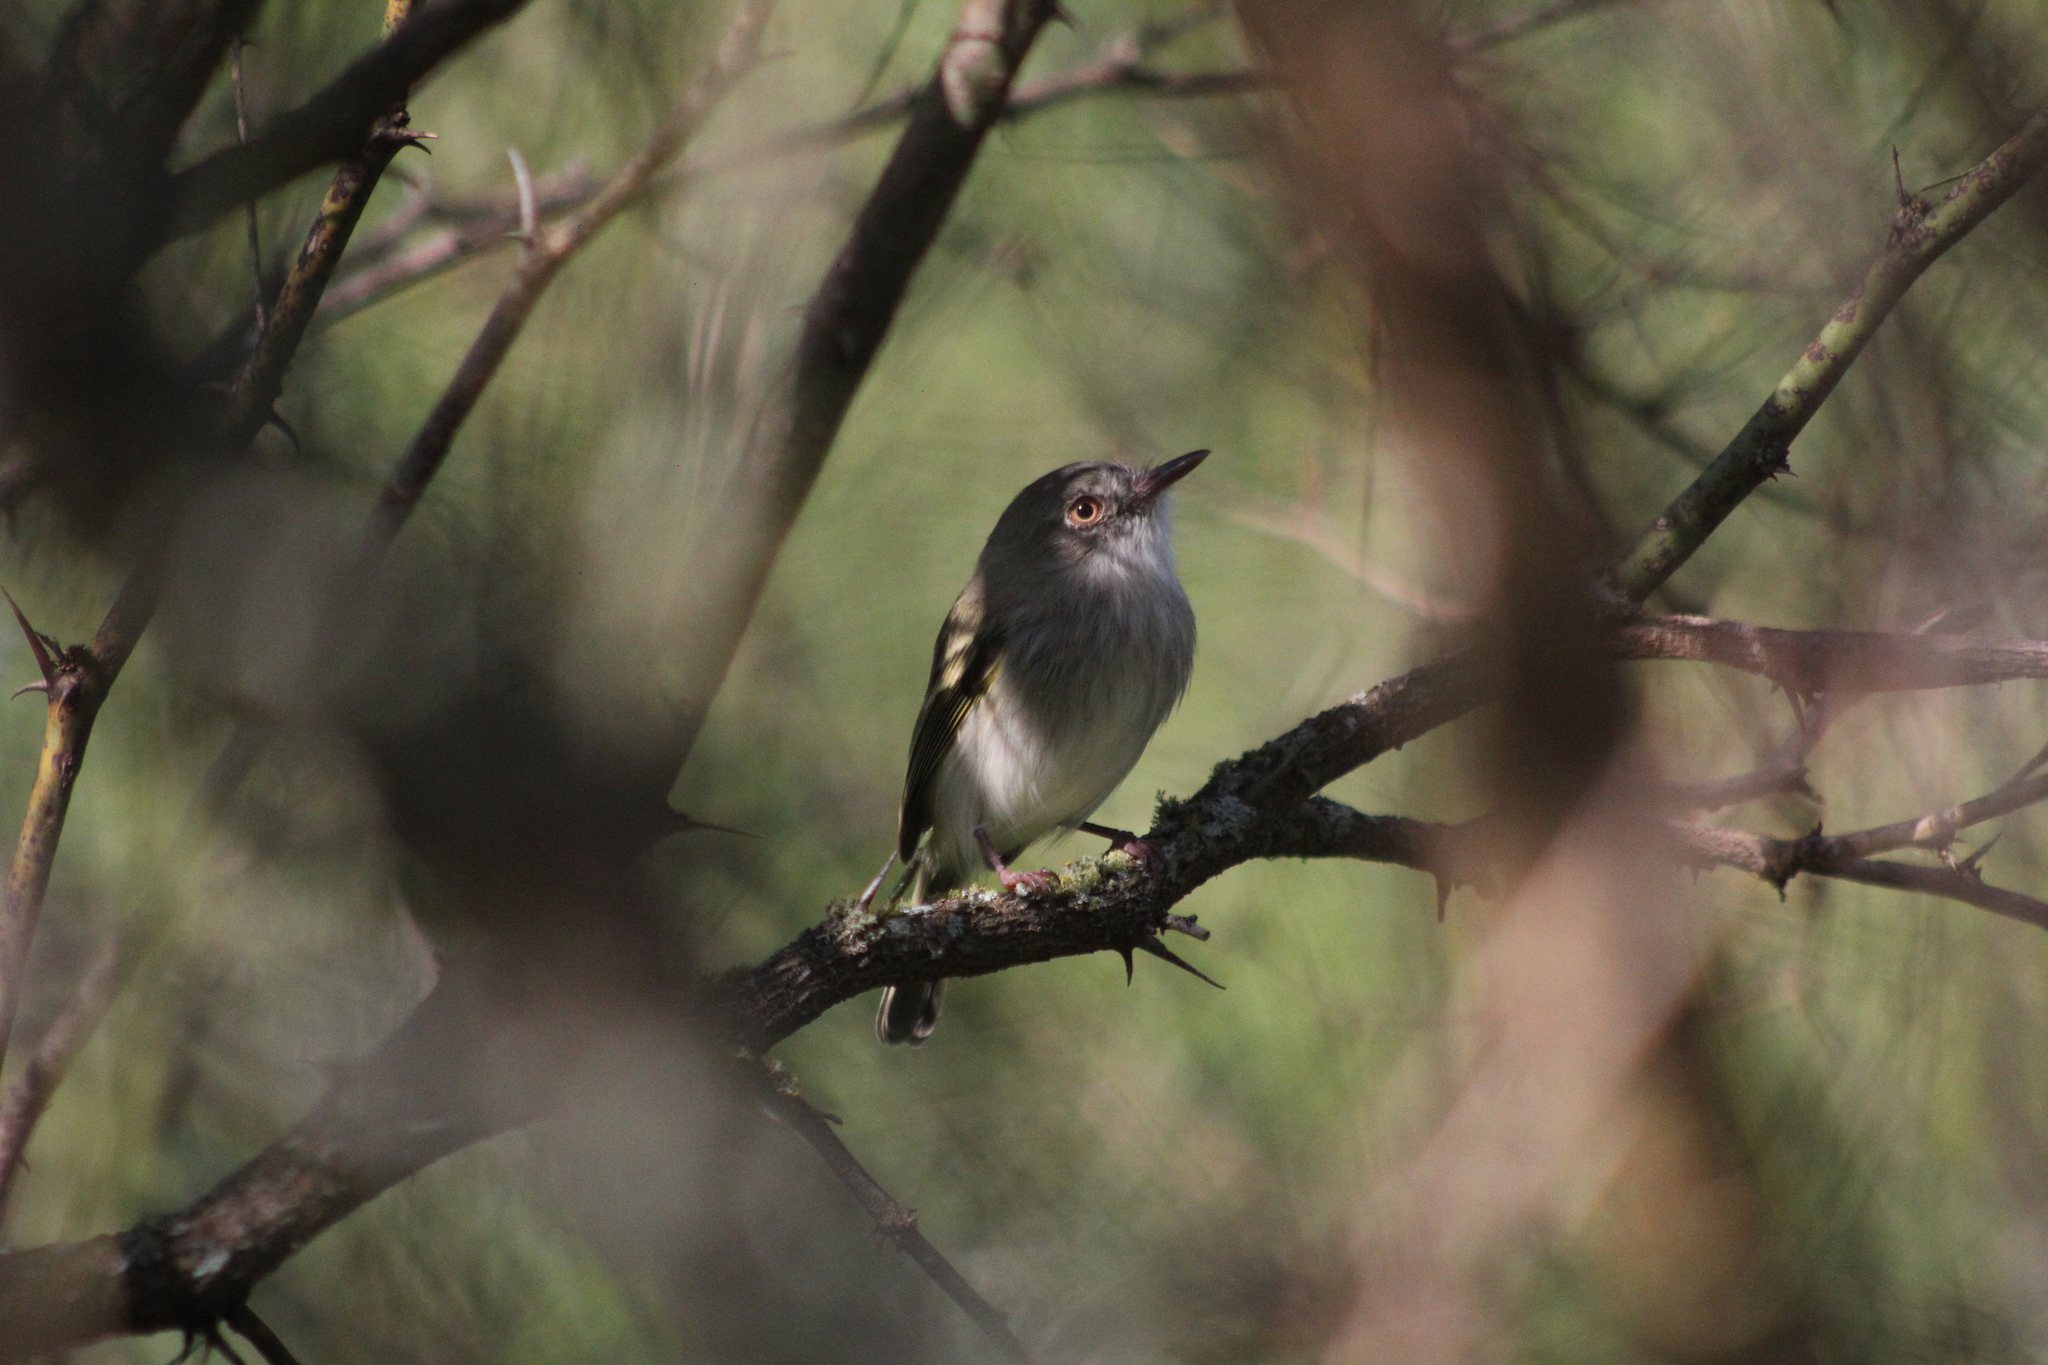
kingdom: Animalia
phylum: Chordata
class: Aves
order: Passeriformes
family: Tyrannidae
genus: Hemitriccus
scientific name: Hemitriccus margaritaceiventer
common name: Pearly-vented tody-tyrant
